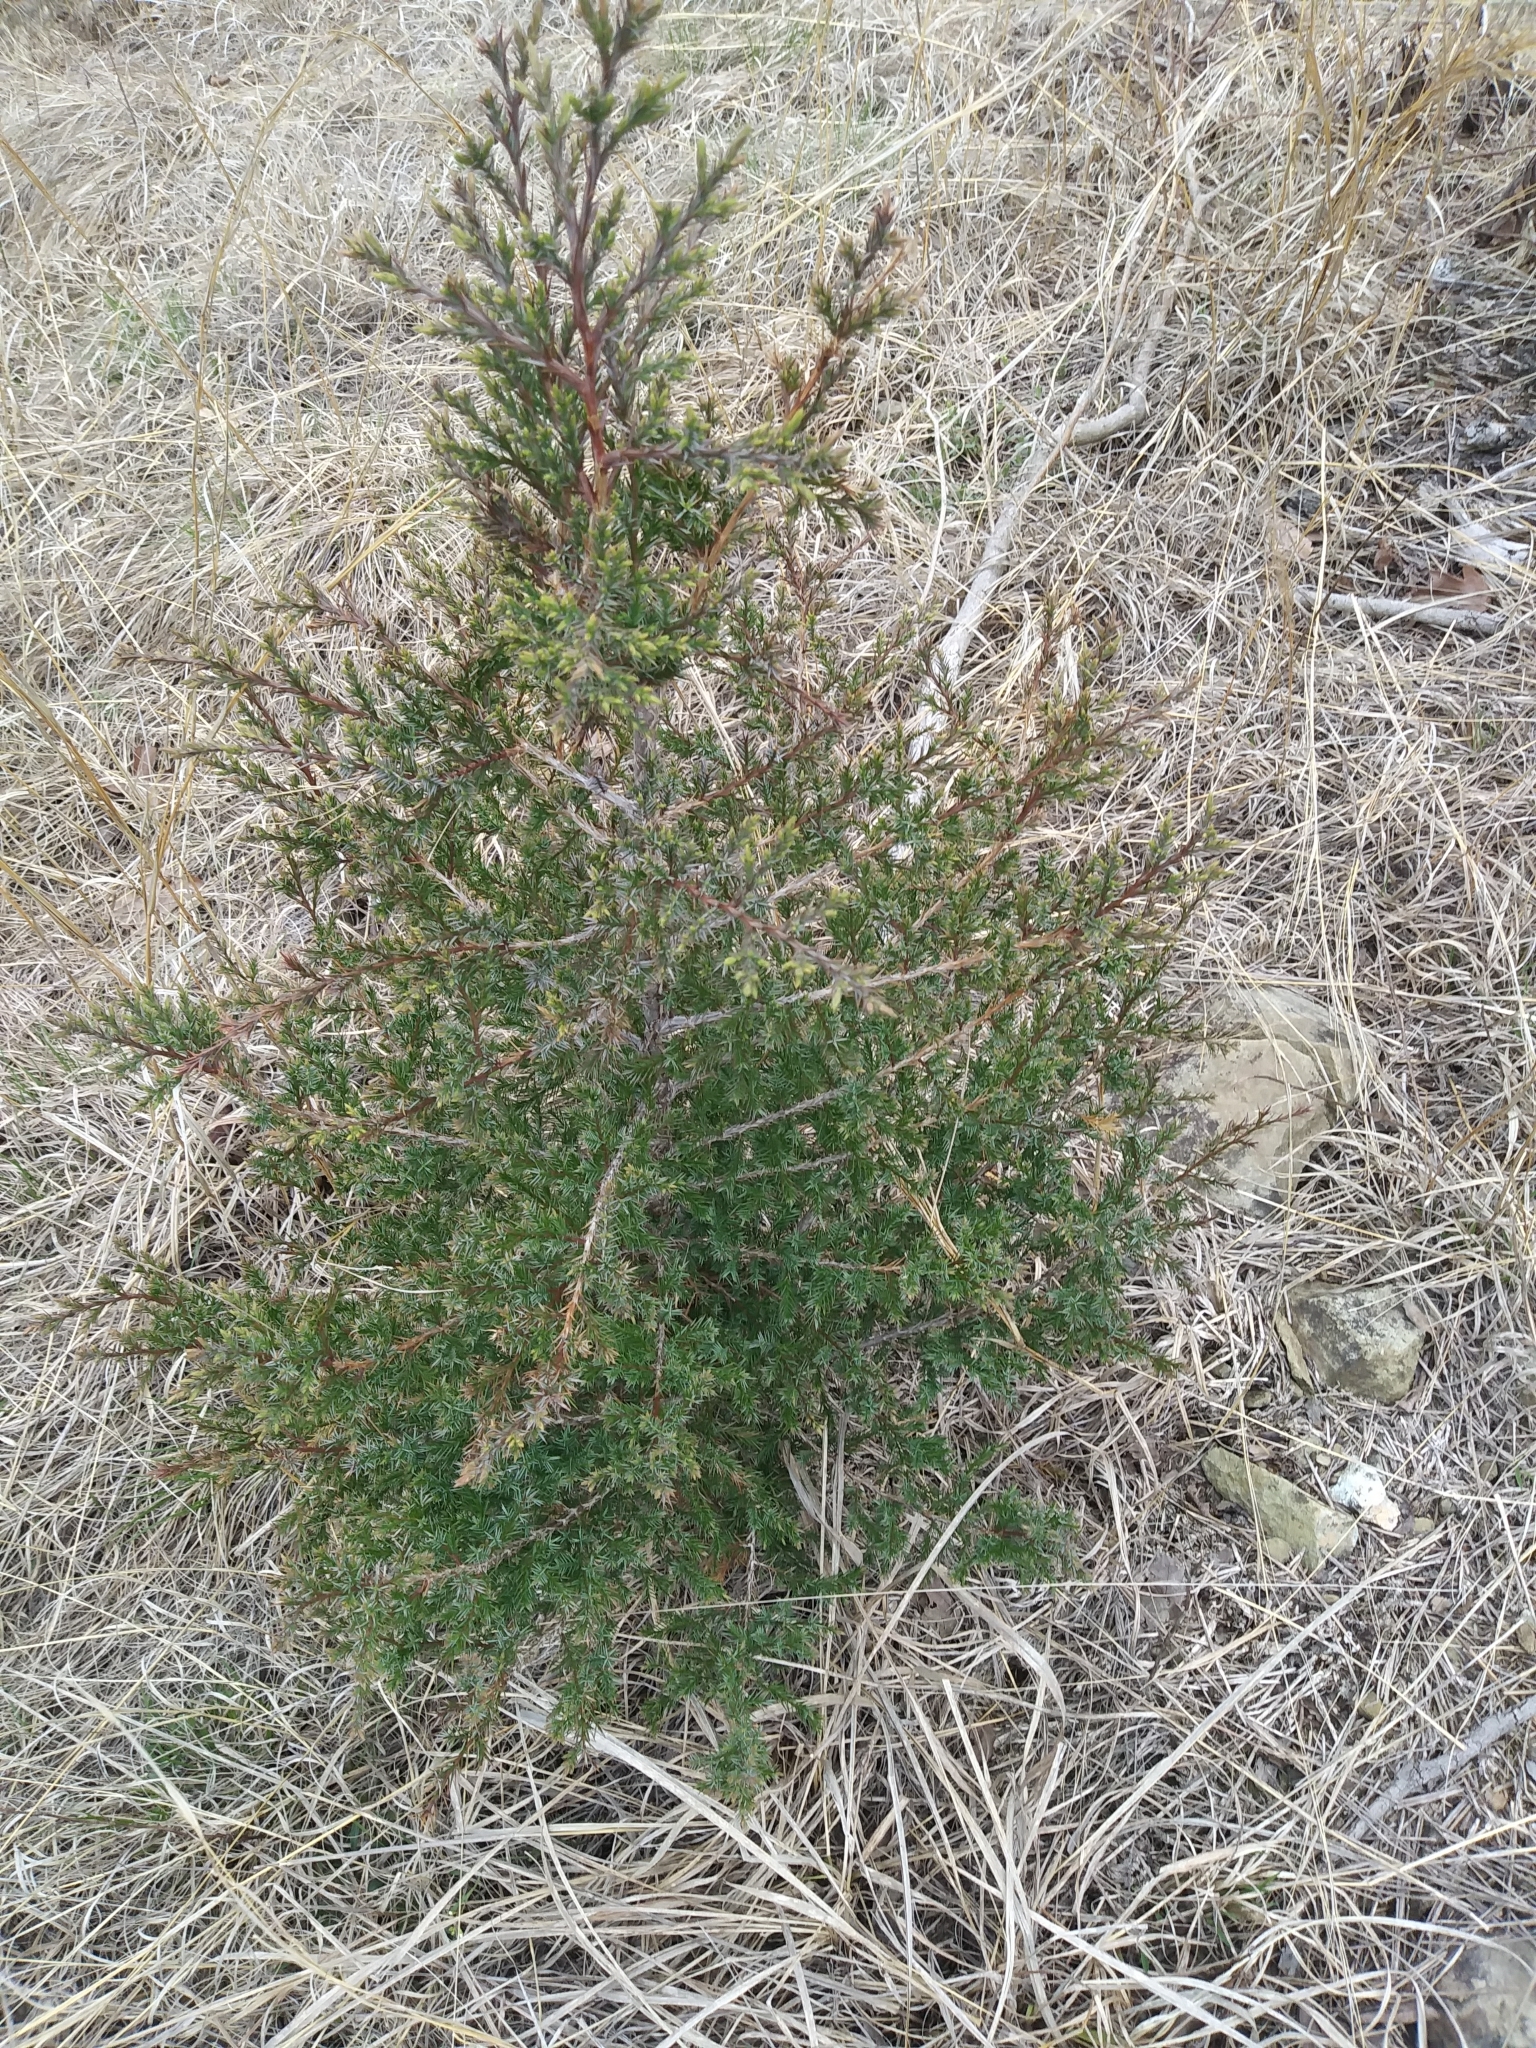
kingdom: Plantae
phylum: Tracheophyta
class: Pinopsida
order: Pinales
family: Cupressaceae
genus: Juniperus
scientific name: Juniperus virginiana
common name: Red juniper
